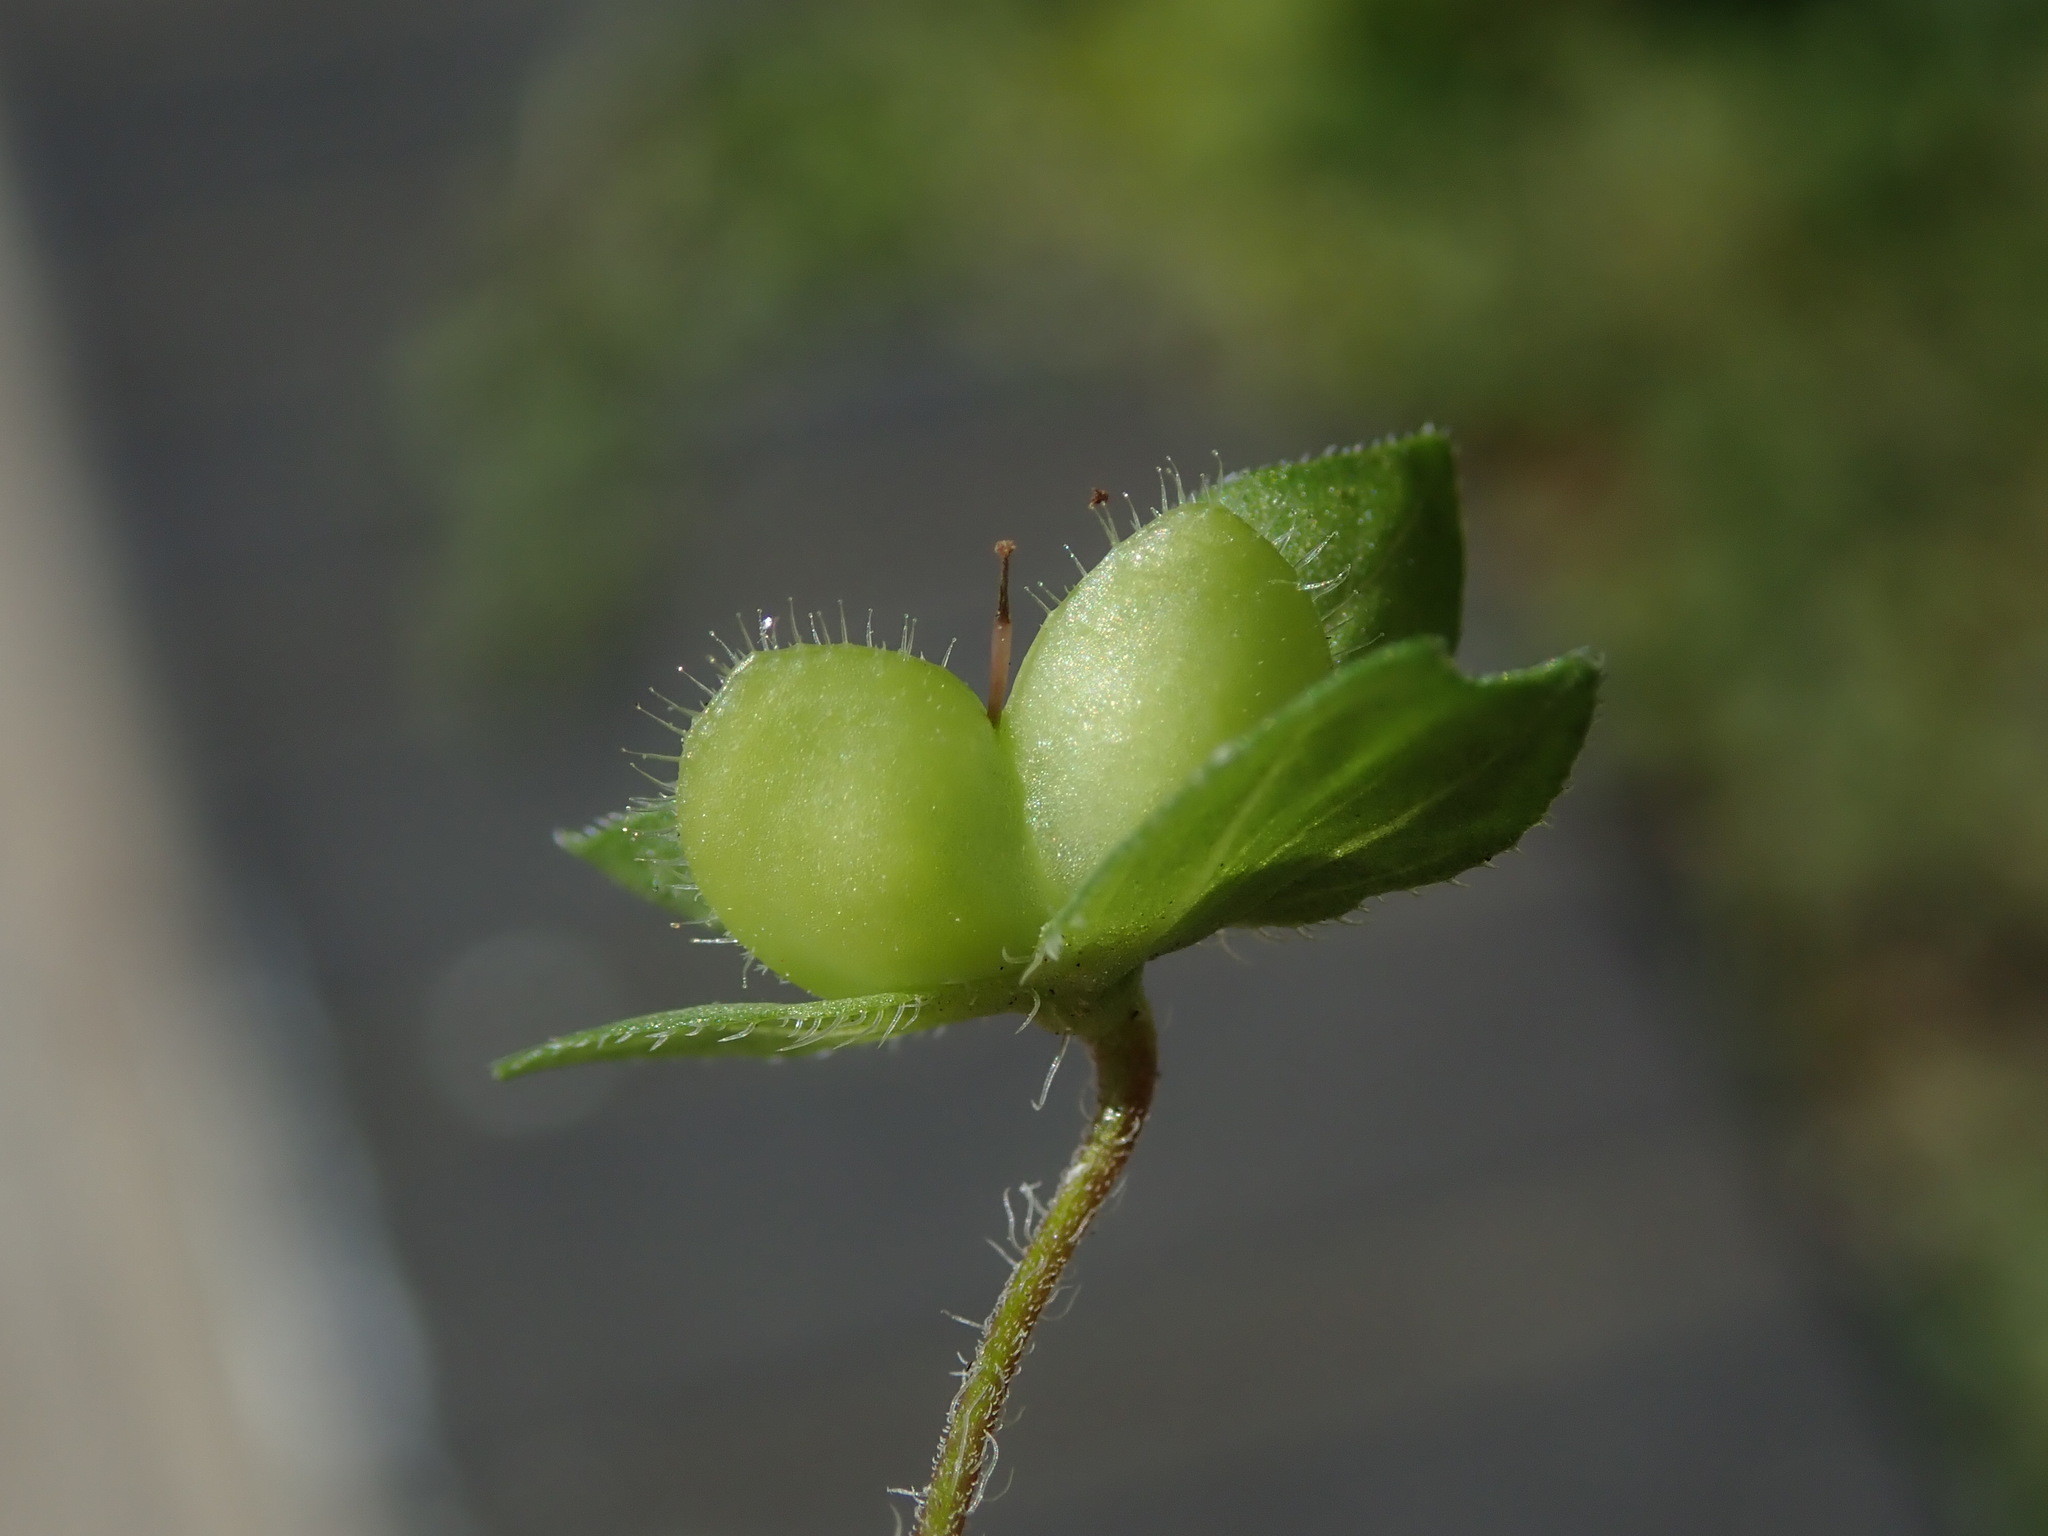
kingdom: Plantae
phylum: Tracheophyta
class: Magnoliopsida
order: Lamiales
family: Plantaginaceae
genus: Veronica
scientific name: Veronica persica
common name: Common field-speedwell
